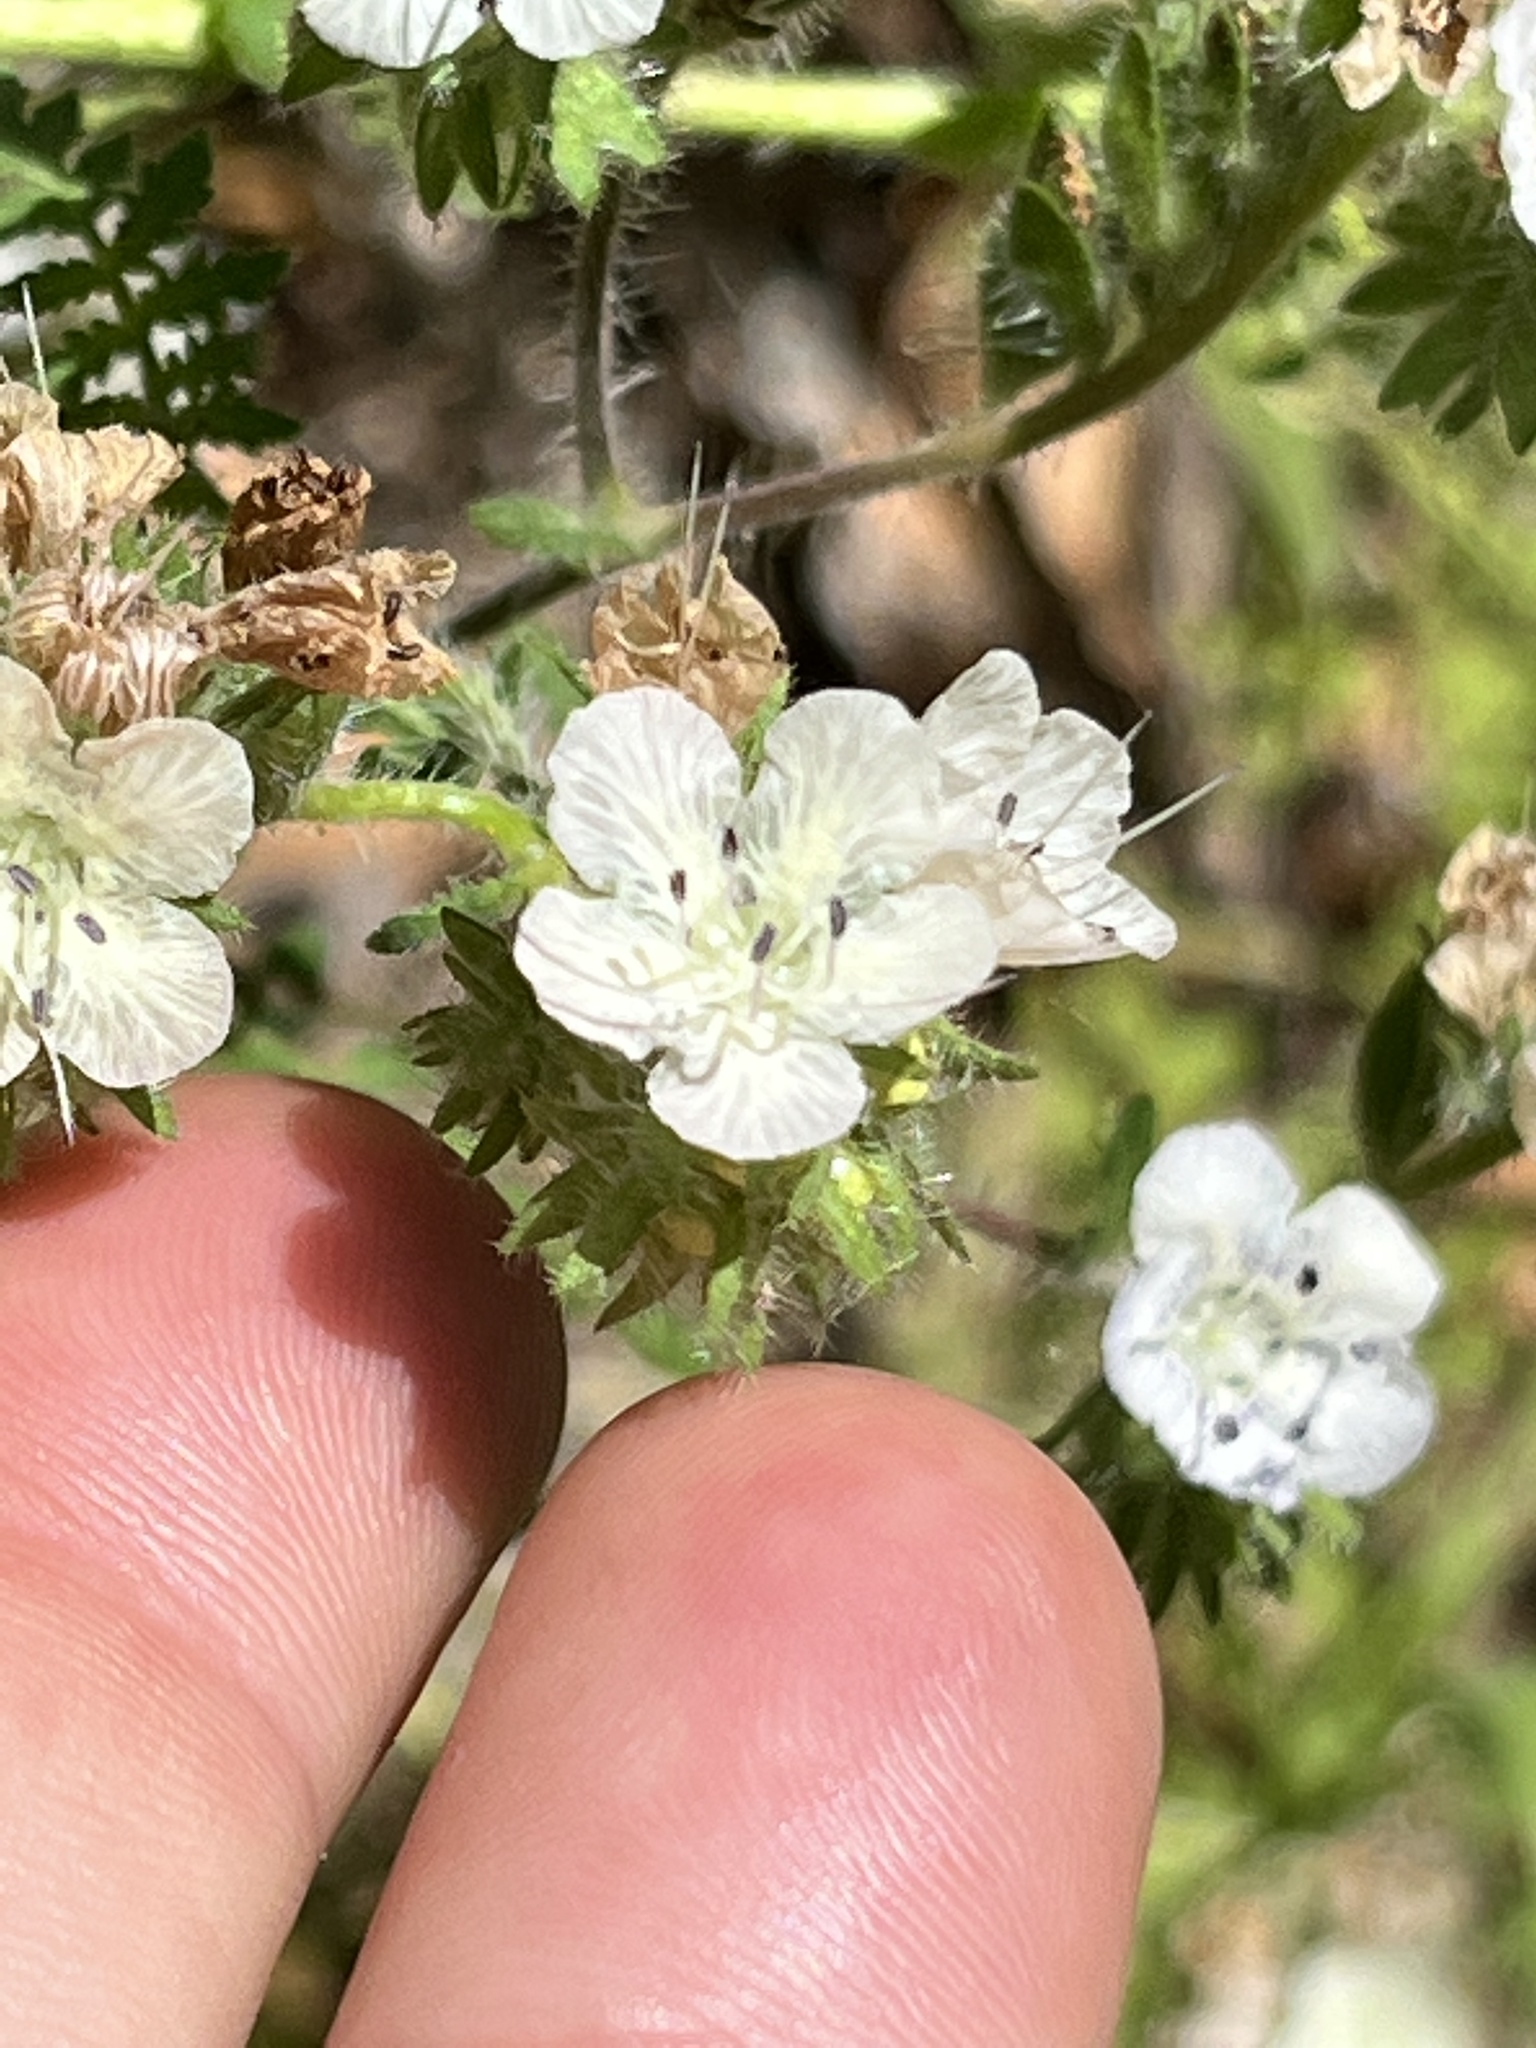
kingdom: Plantae
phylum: Tracheophyta
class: Magnoliopsida
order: Boraginales
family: Hydrophyllaceae
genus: Phacelia
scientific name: Phacelia distans
